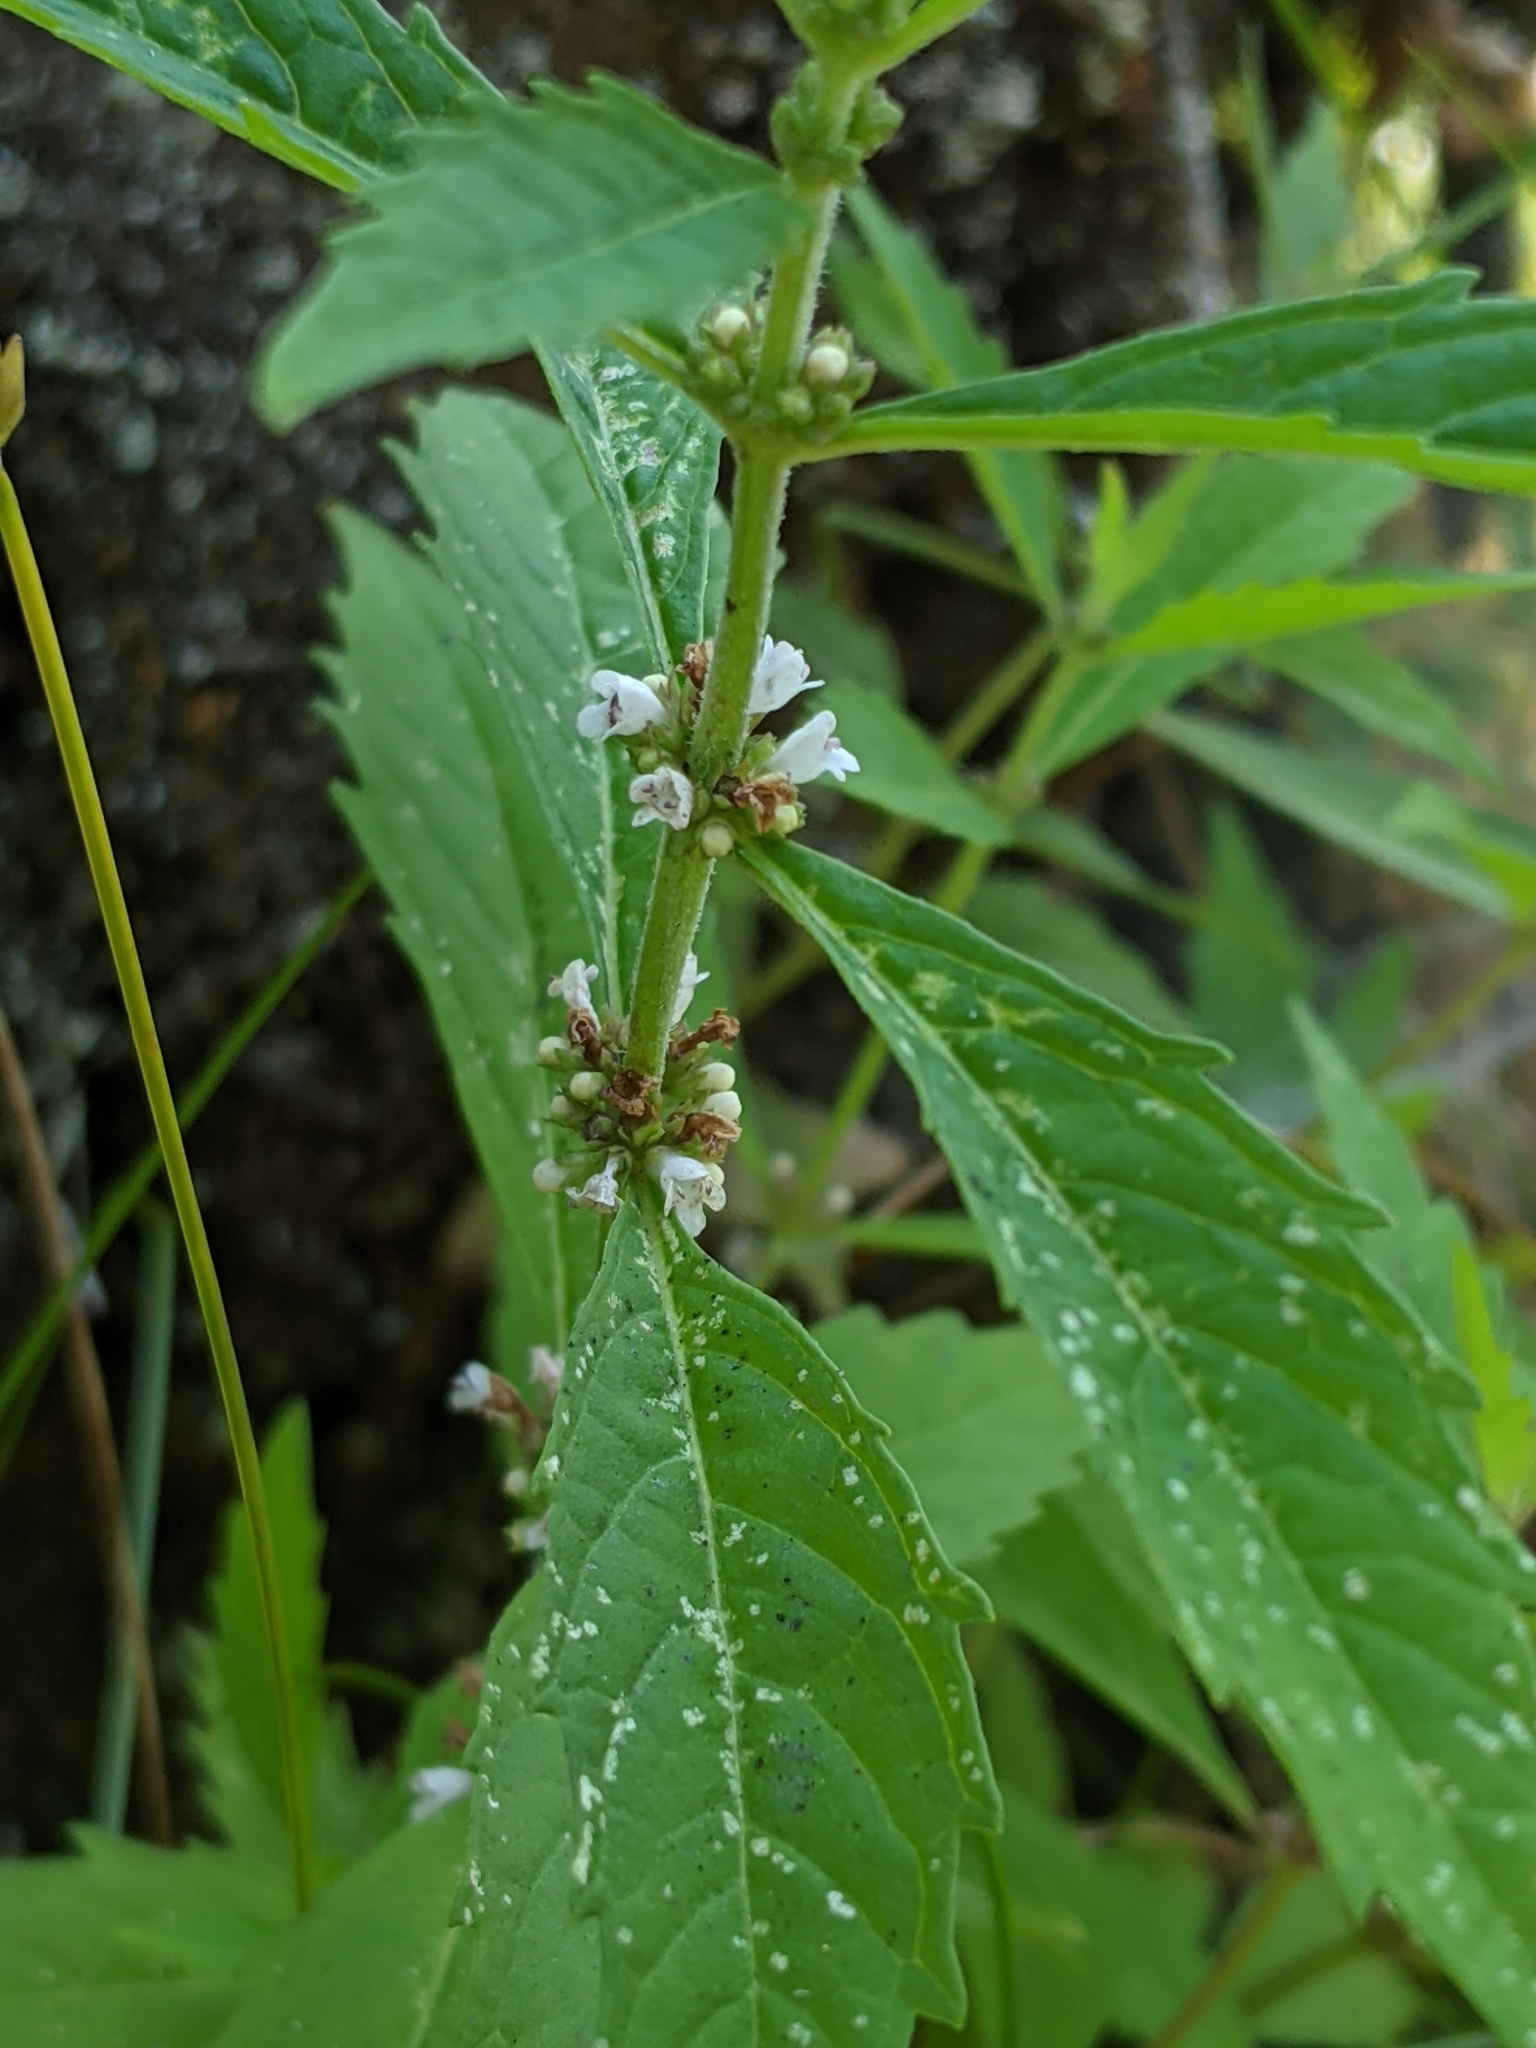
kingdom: Plantae
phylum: Tracheophyta
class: Magnoliopsida
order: Lamiales
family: Lamiaceae
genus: Lycopus
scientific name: Lycopus uniflorus
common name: Northern bugleweed
